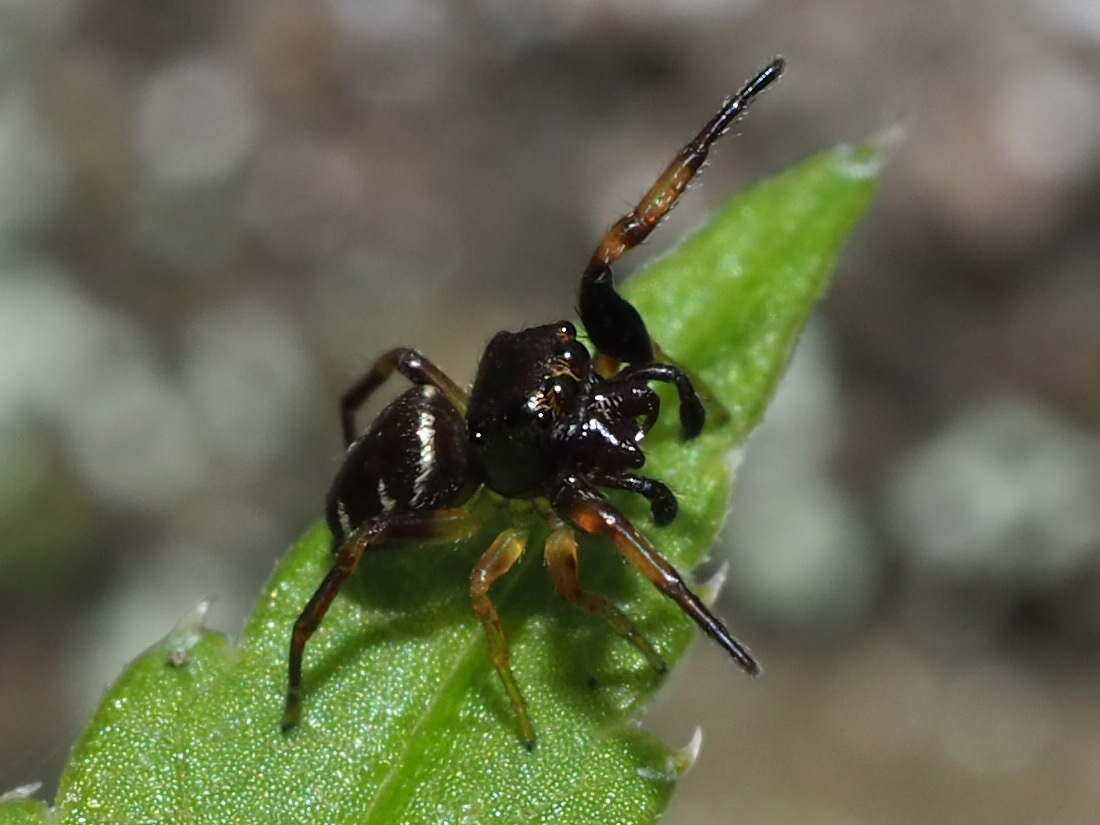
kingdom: Animalia
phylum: Arthropoda
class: Arachnida
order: Araneae
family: Salticidae
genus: Zygoballus
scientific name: Zygoballus rufipes
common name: Jumping spiders
